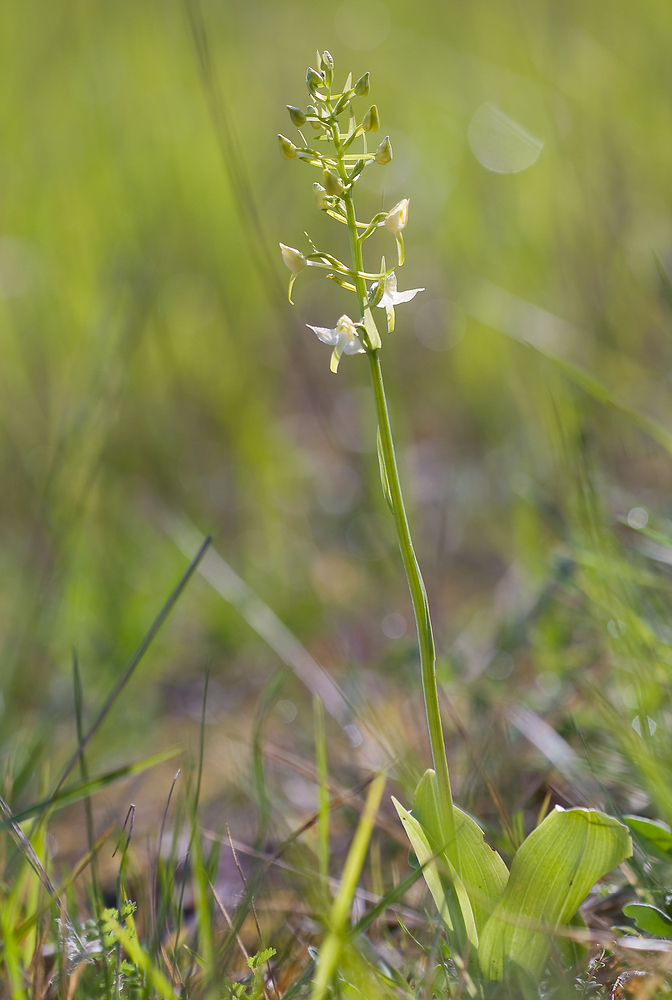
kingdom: Plantae
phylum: Tracheophyta
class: Liliopsida
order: Asparagales
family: Orchidaceae
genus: Platanthera
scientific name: Platanthera chlorantha
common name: Greater butterfly-orchid
